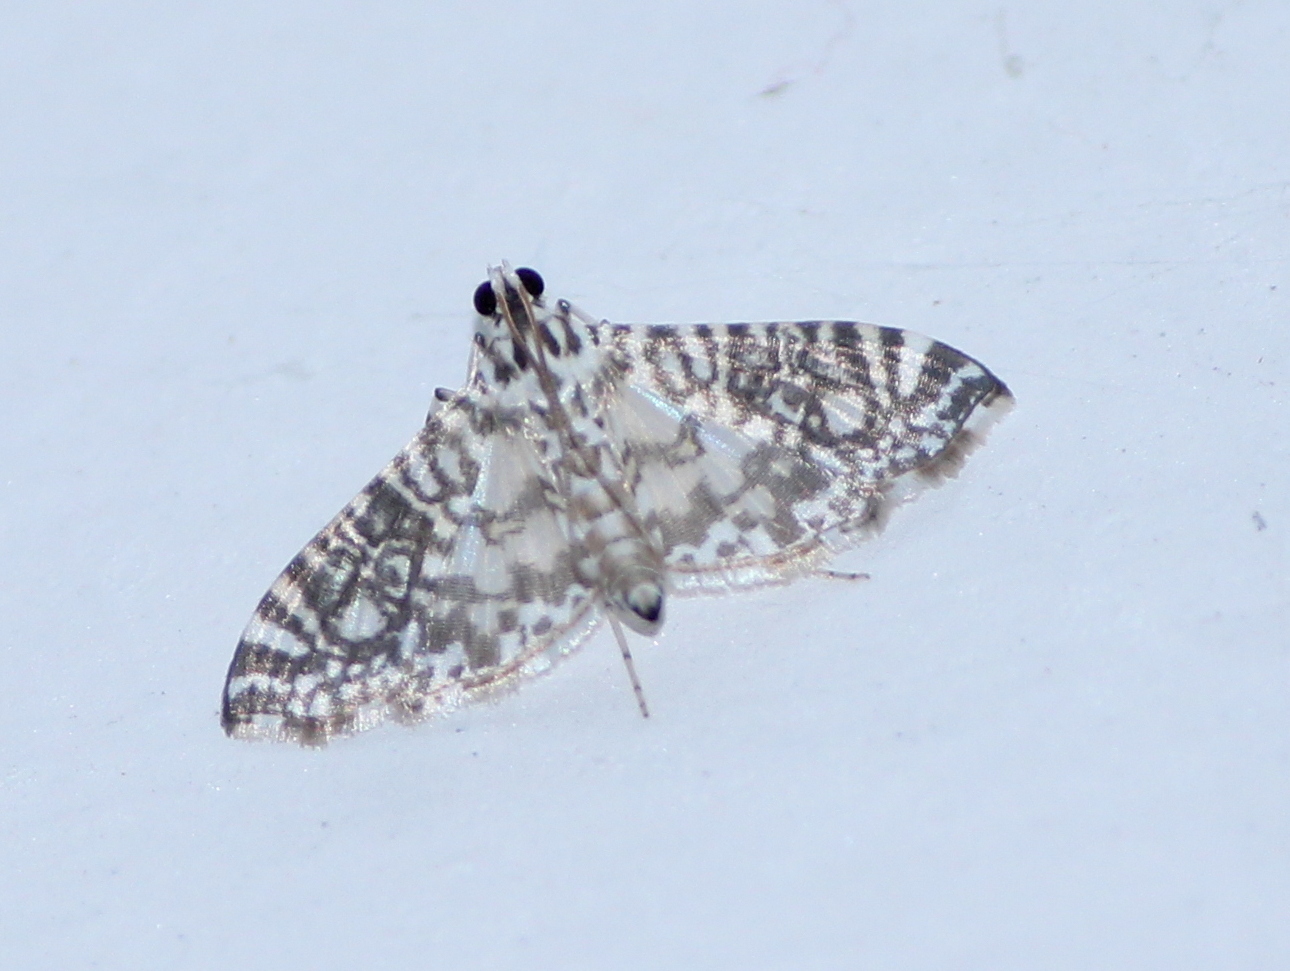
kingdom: Animalia
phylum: Arthropoda
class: Insecta
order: Lepidoptera
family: Crambidae
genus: Glyphodes
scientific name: Glyphodes onychinalis
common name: Swan plant moth
